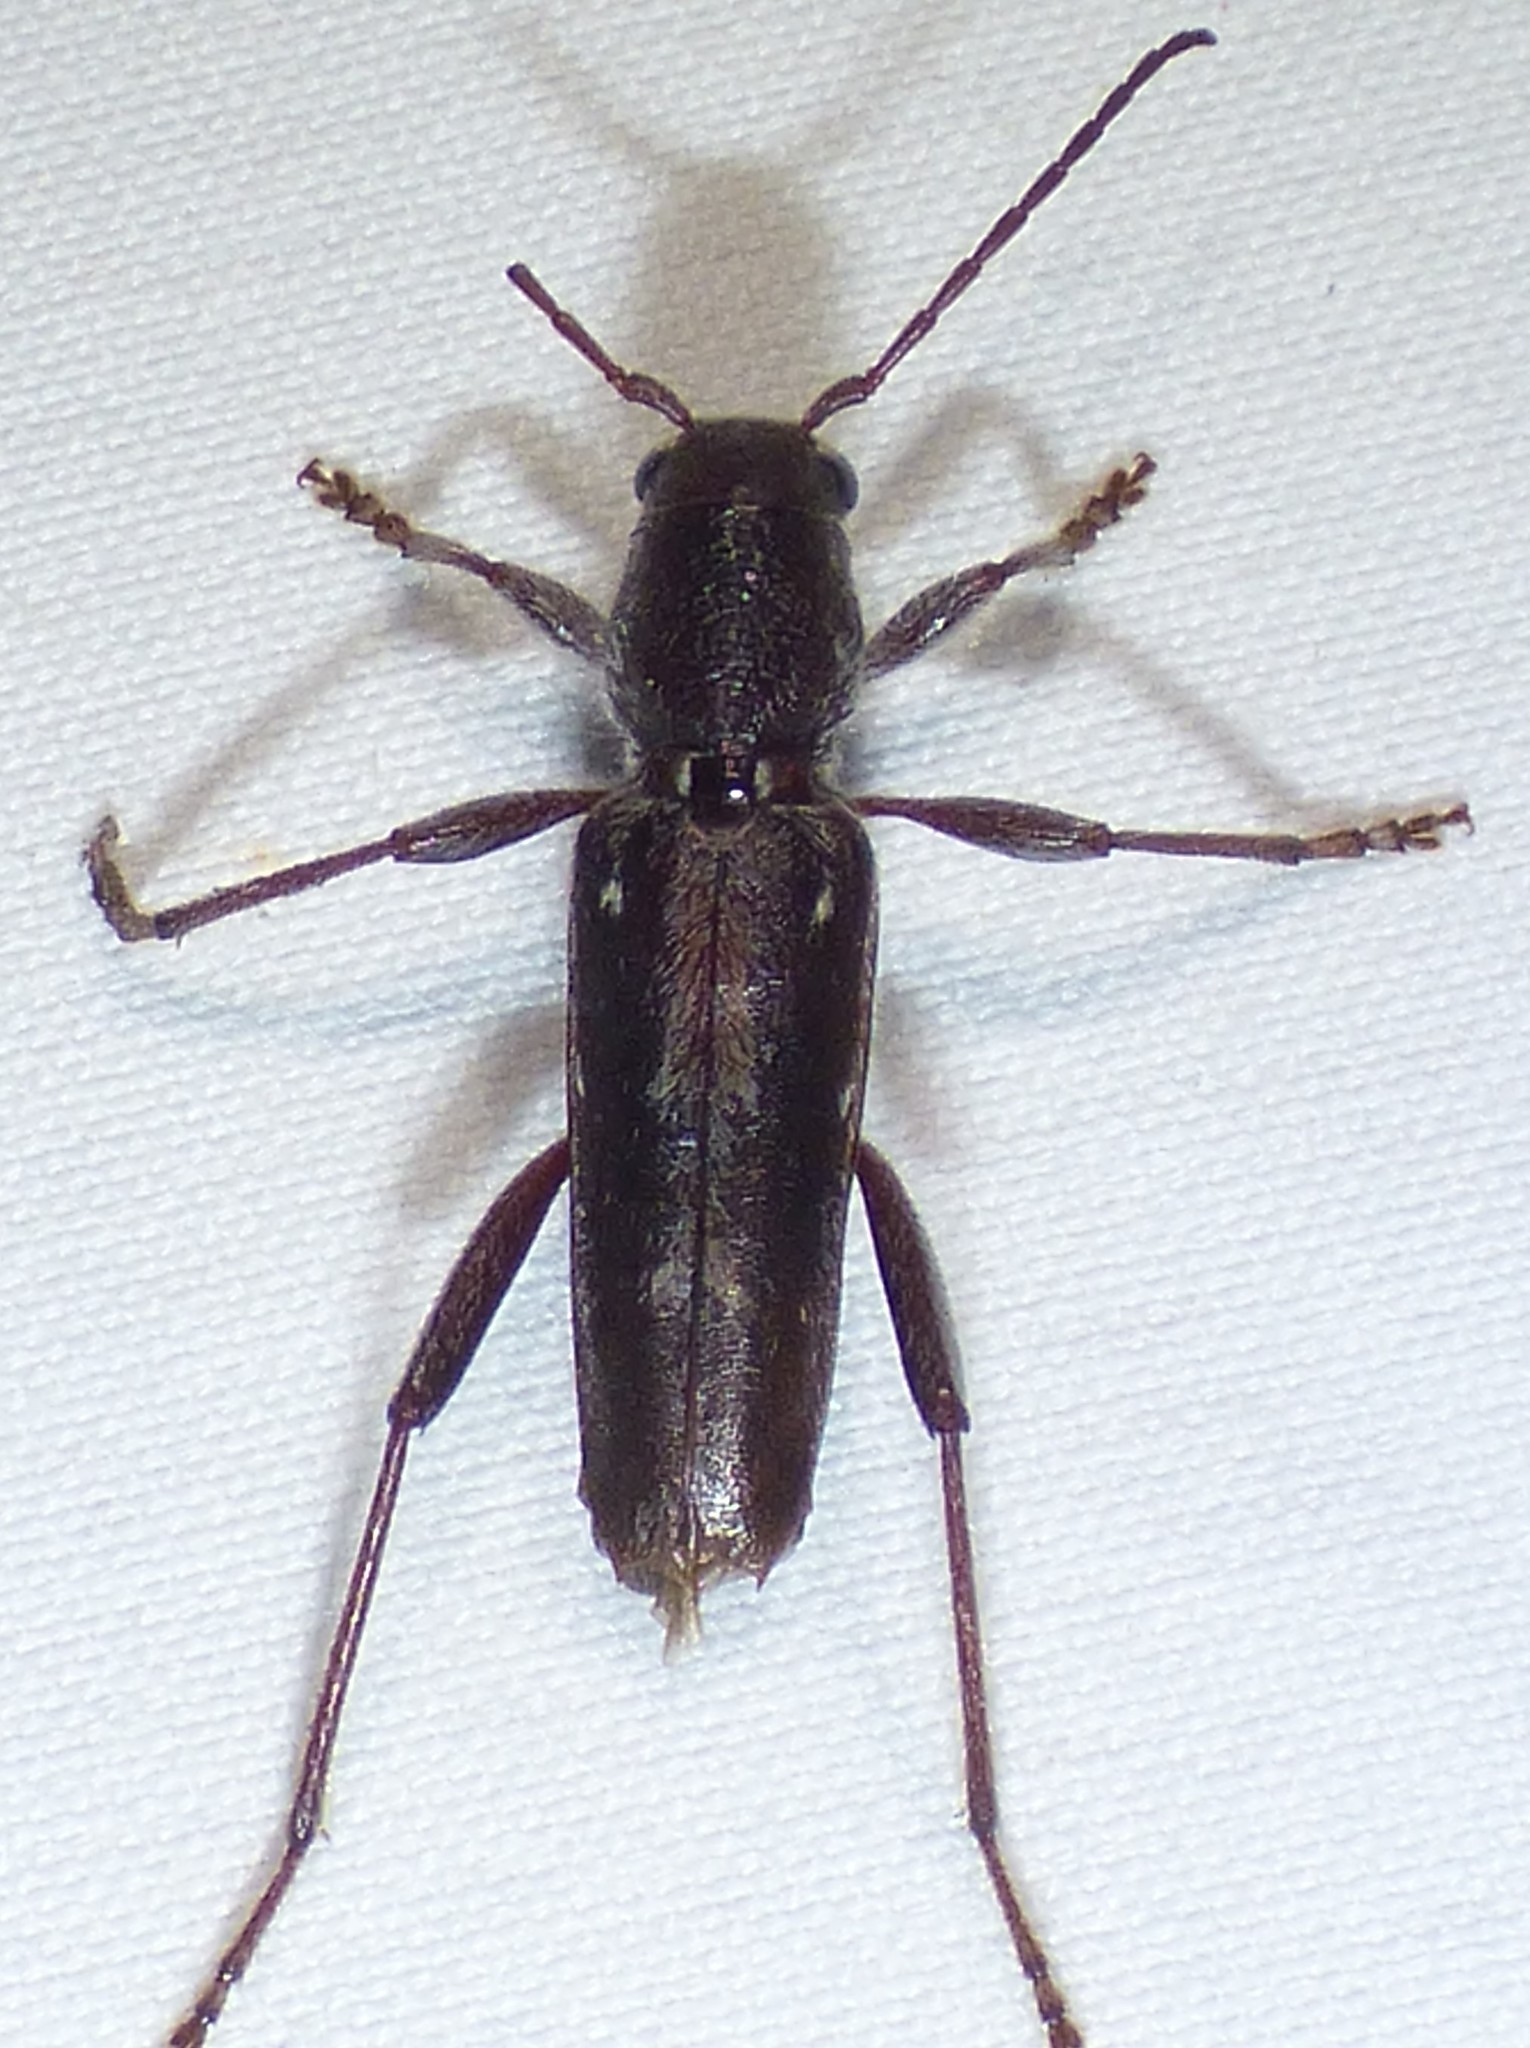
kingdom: Animalia
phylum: Arthropoda
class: Insecta
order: Coleoptera
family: Cerambycidae
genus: Xylotrechus
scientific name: Xylotrechus sagittatus
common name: Arrowhead borer
